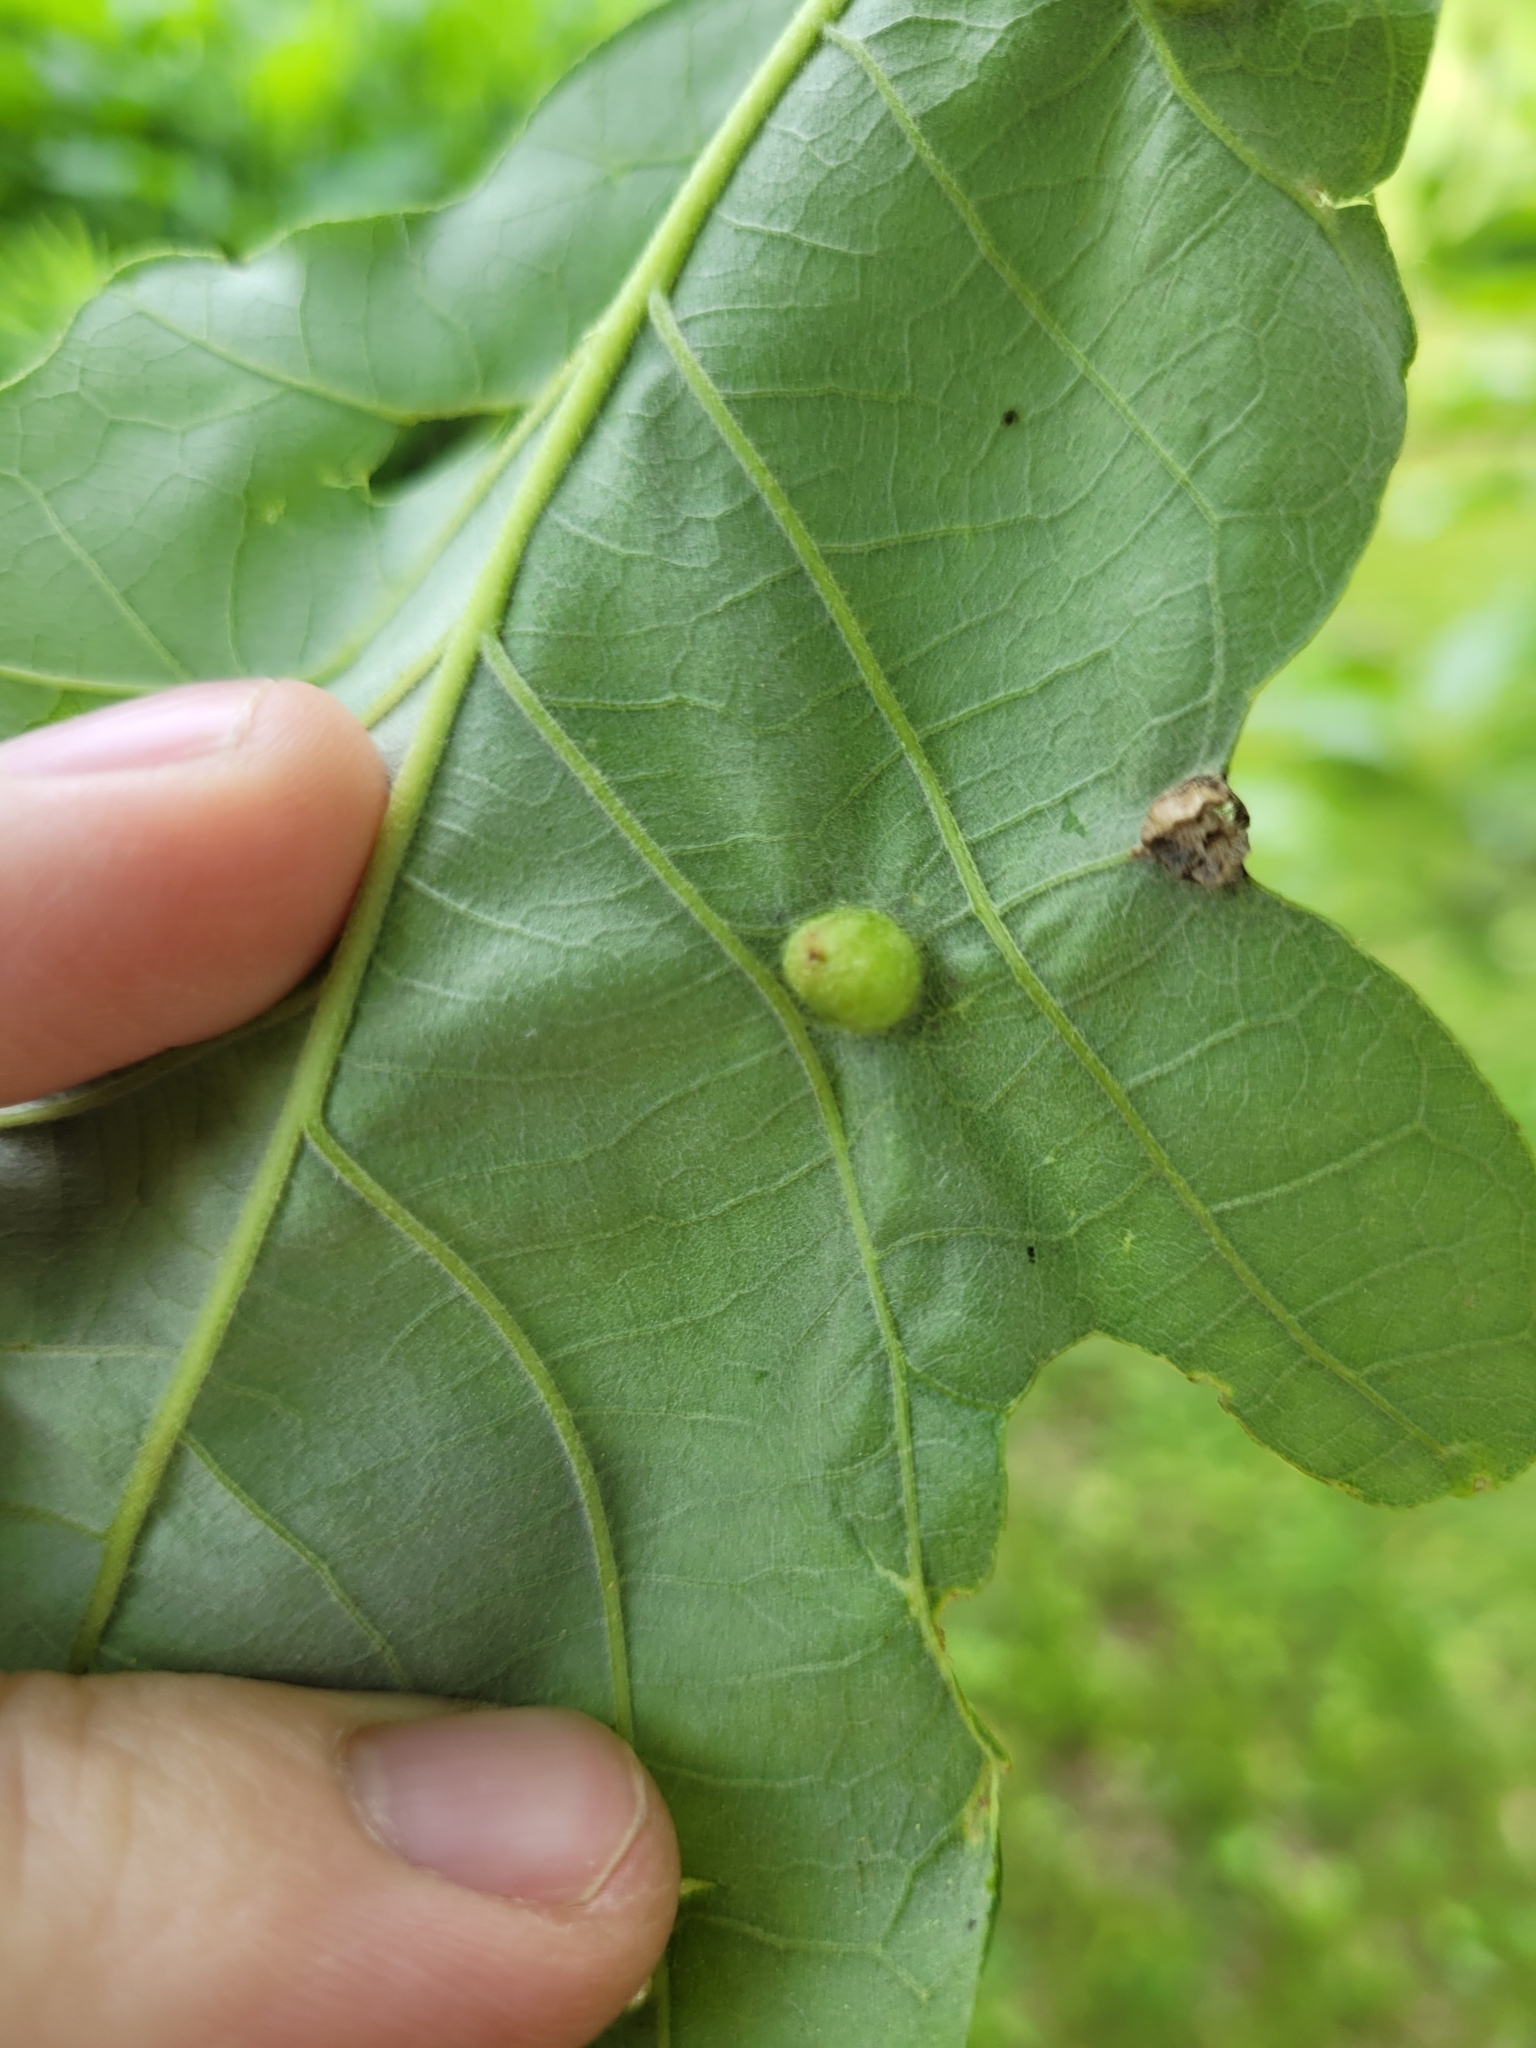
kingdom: Animalia
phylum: Arthropoda
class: Insecta
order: Hymenoptera
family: Cynipidae
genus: Callirhytis
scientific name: Callirhytis
